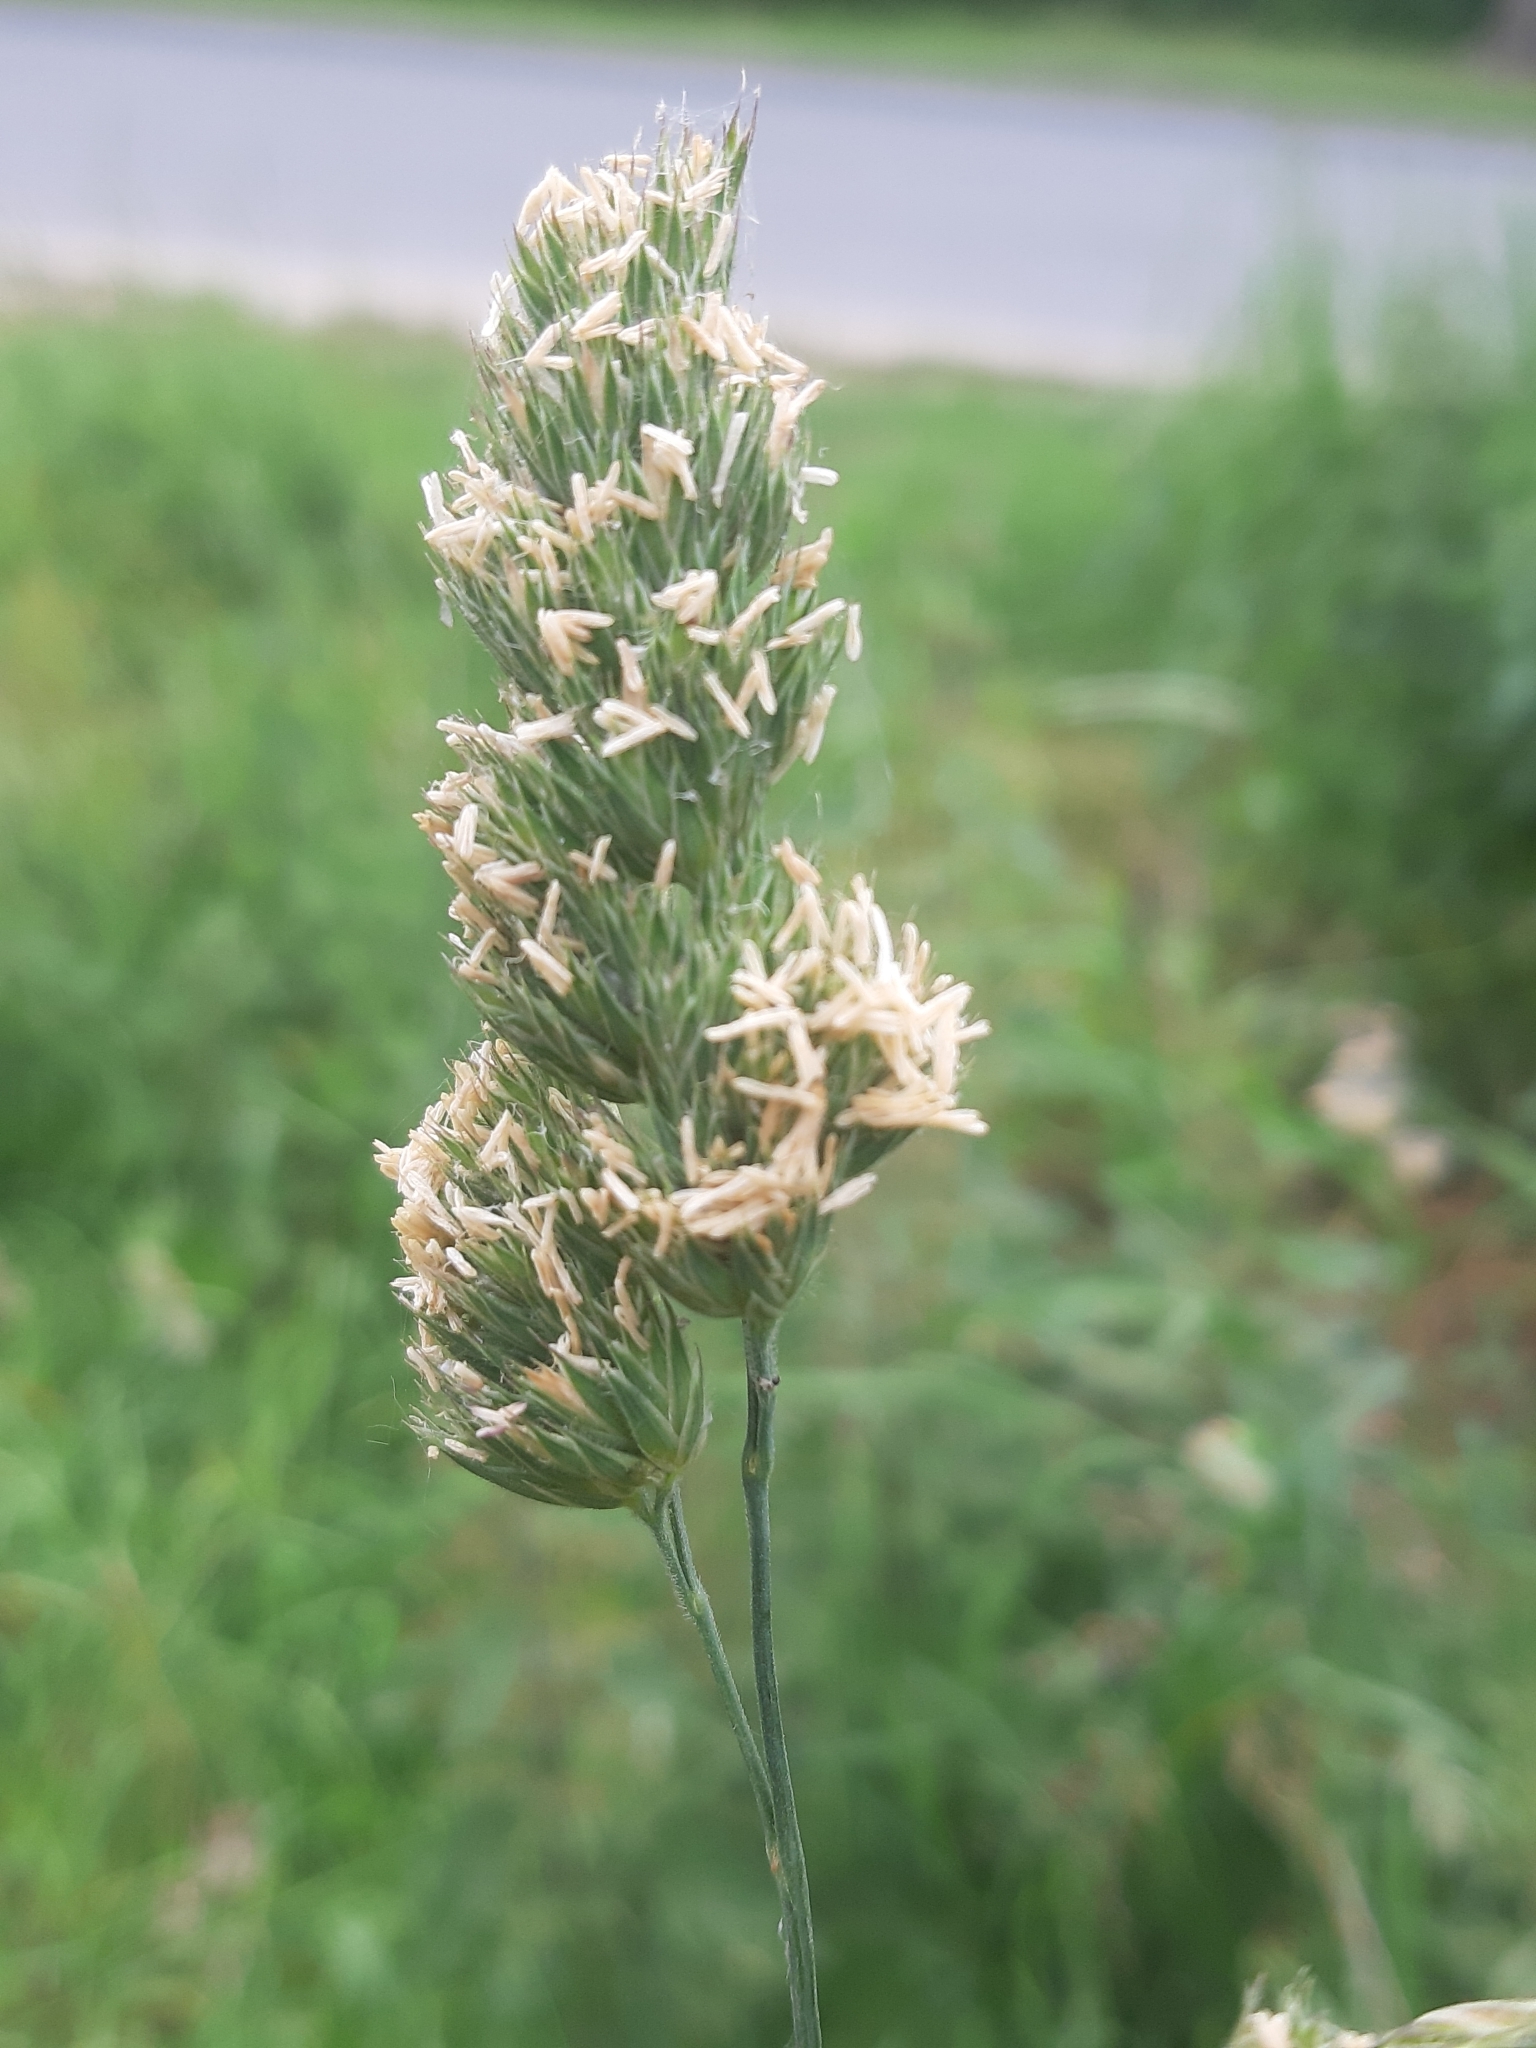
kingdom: Plantae
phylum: Tracheophyta
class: Liliopsida
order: Poales
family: Poaceae
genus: Dactylis
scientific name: Dactylis glomerata
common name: Orchardgrass
